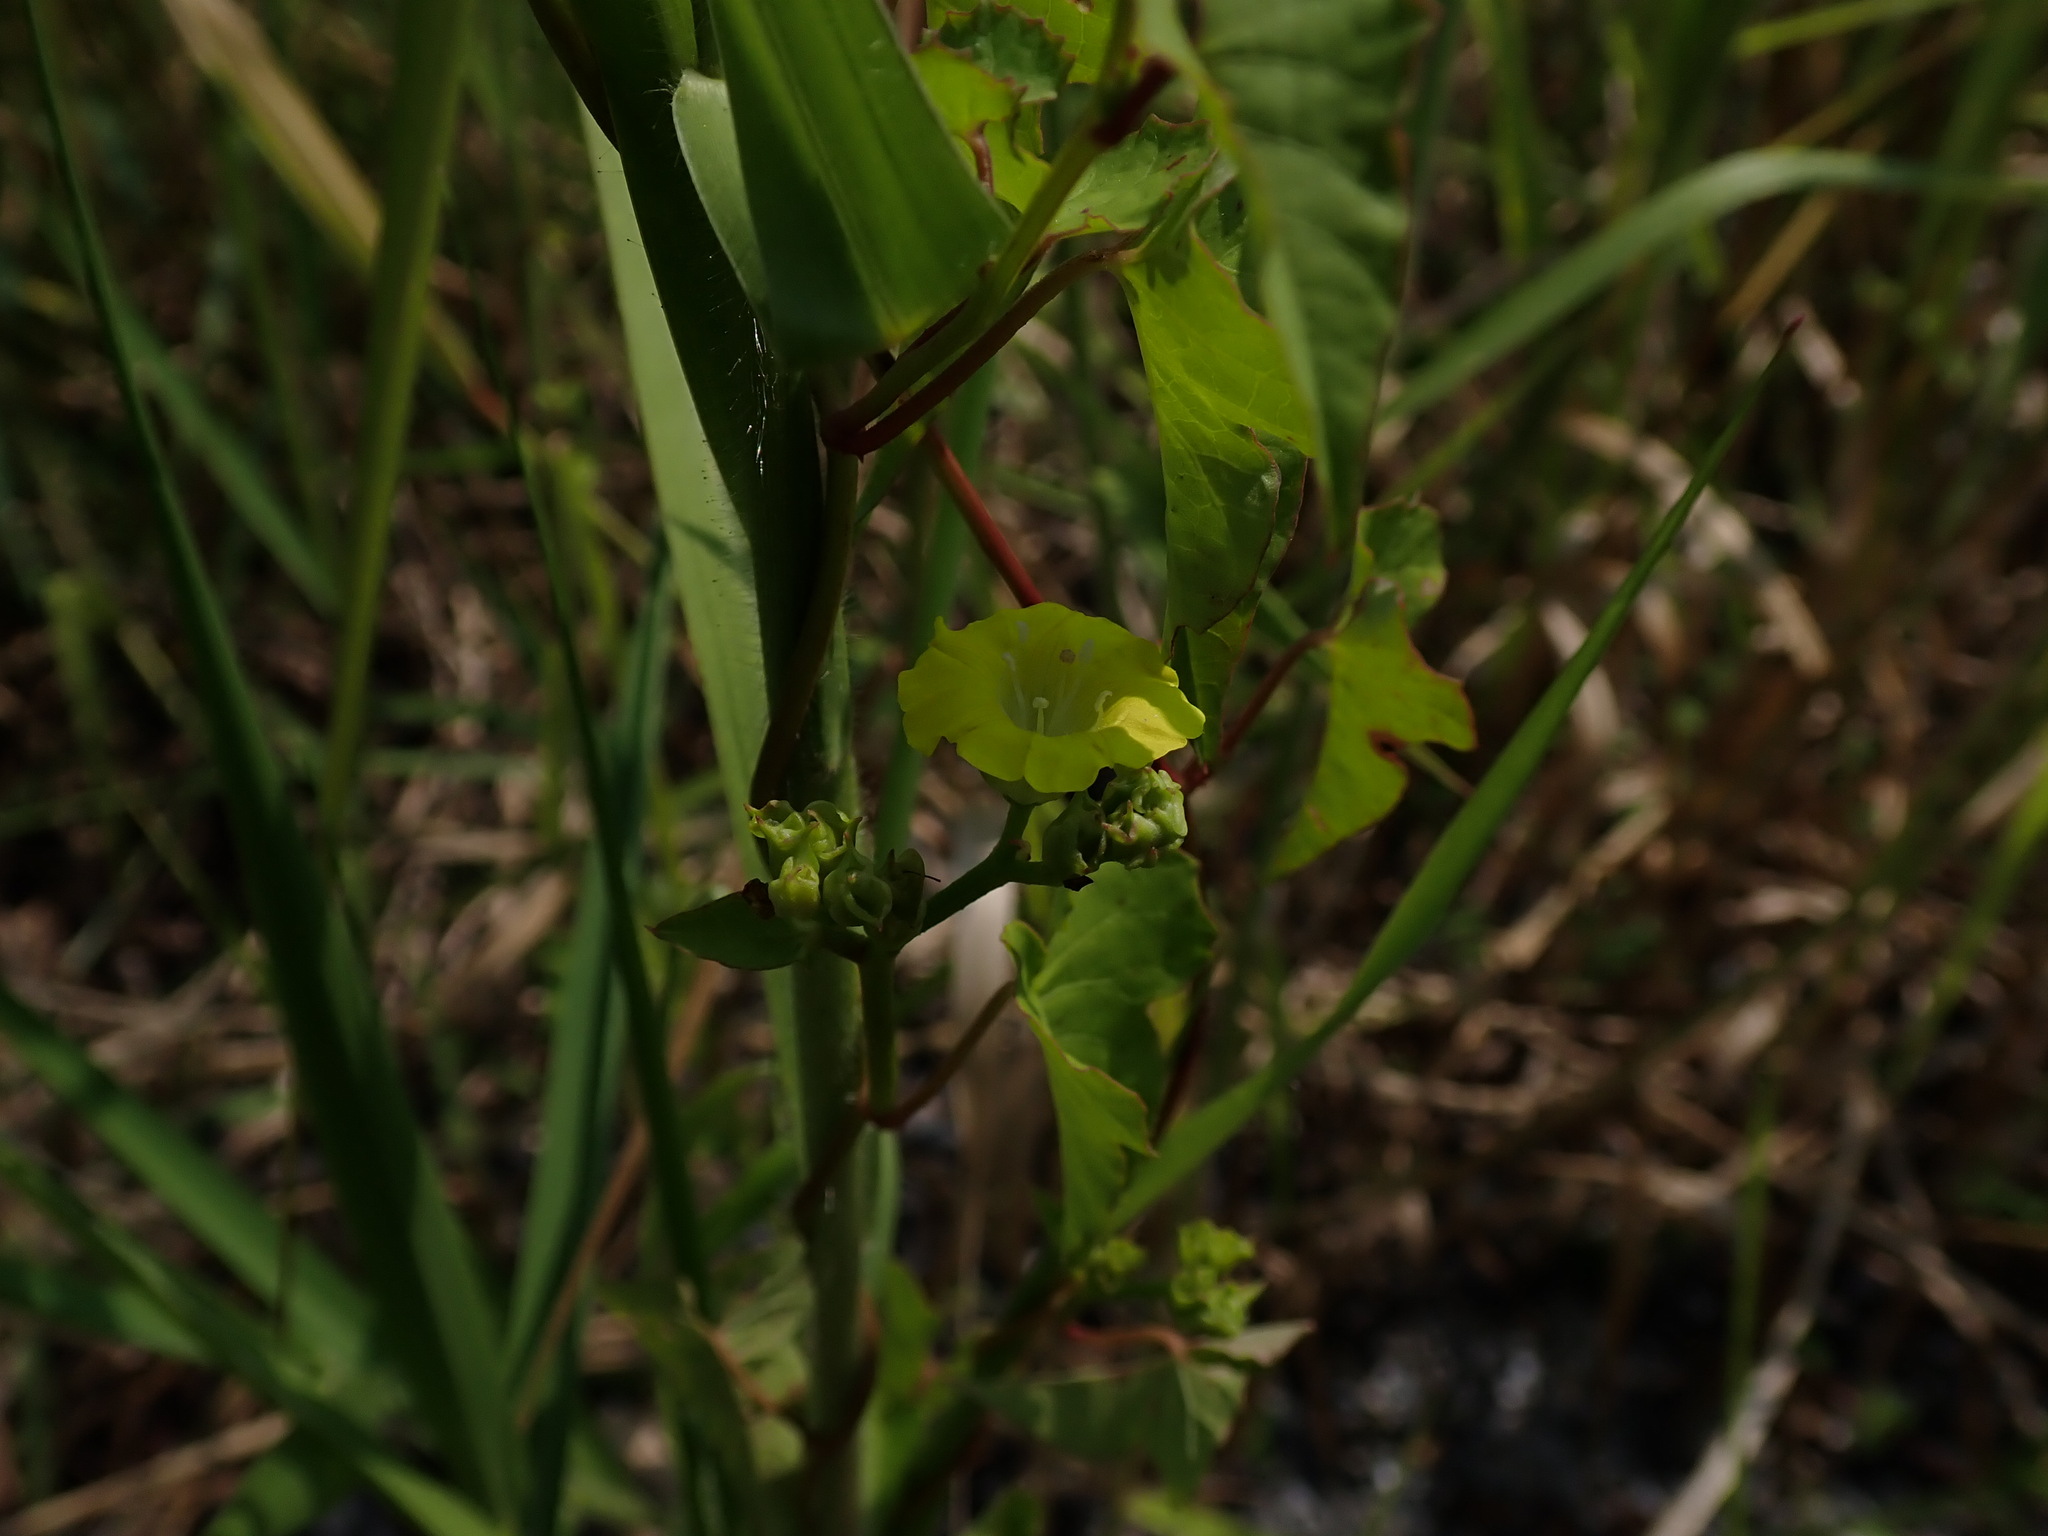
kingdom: Plantae
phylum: Tracheophyta
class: Magnoliopsida
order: Solanales
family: Convolvulaceae
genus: Merremia
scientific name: Merremia hederacea
